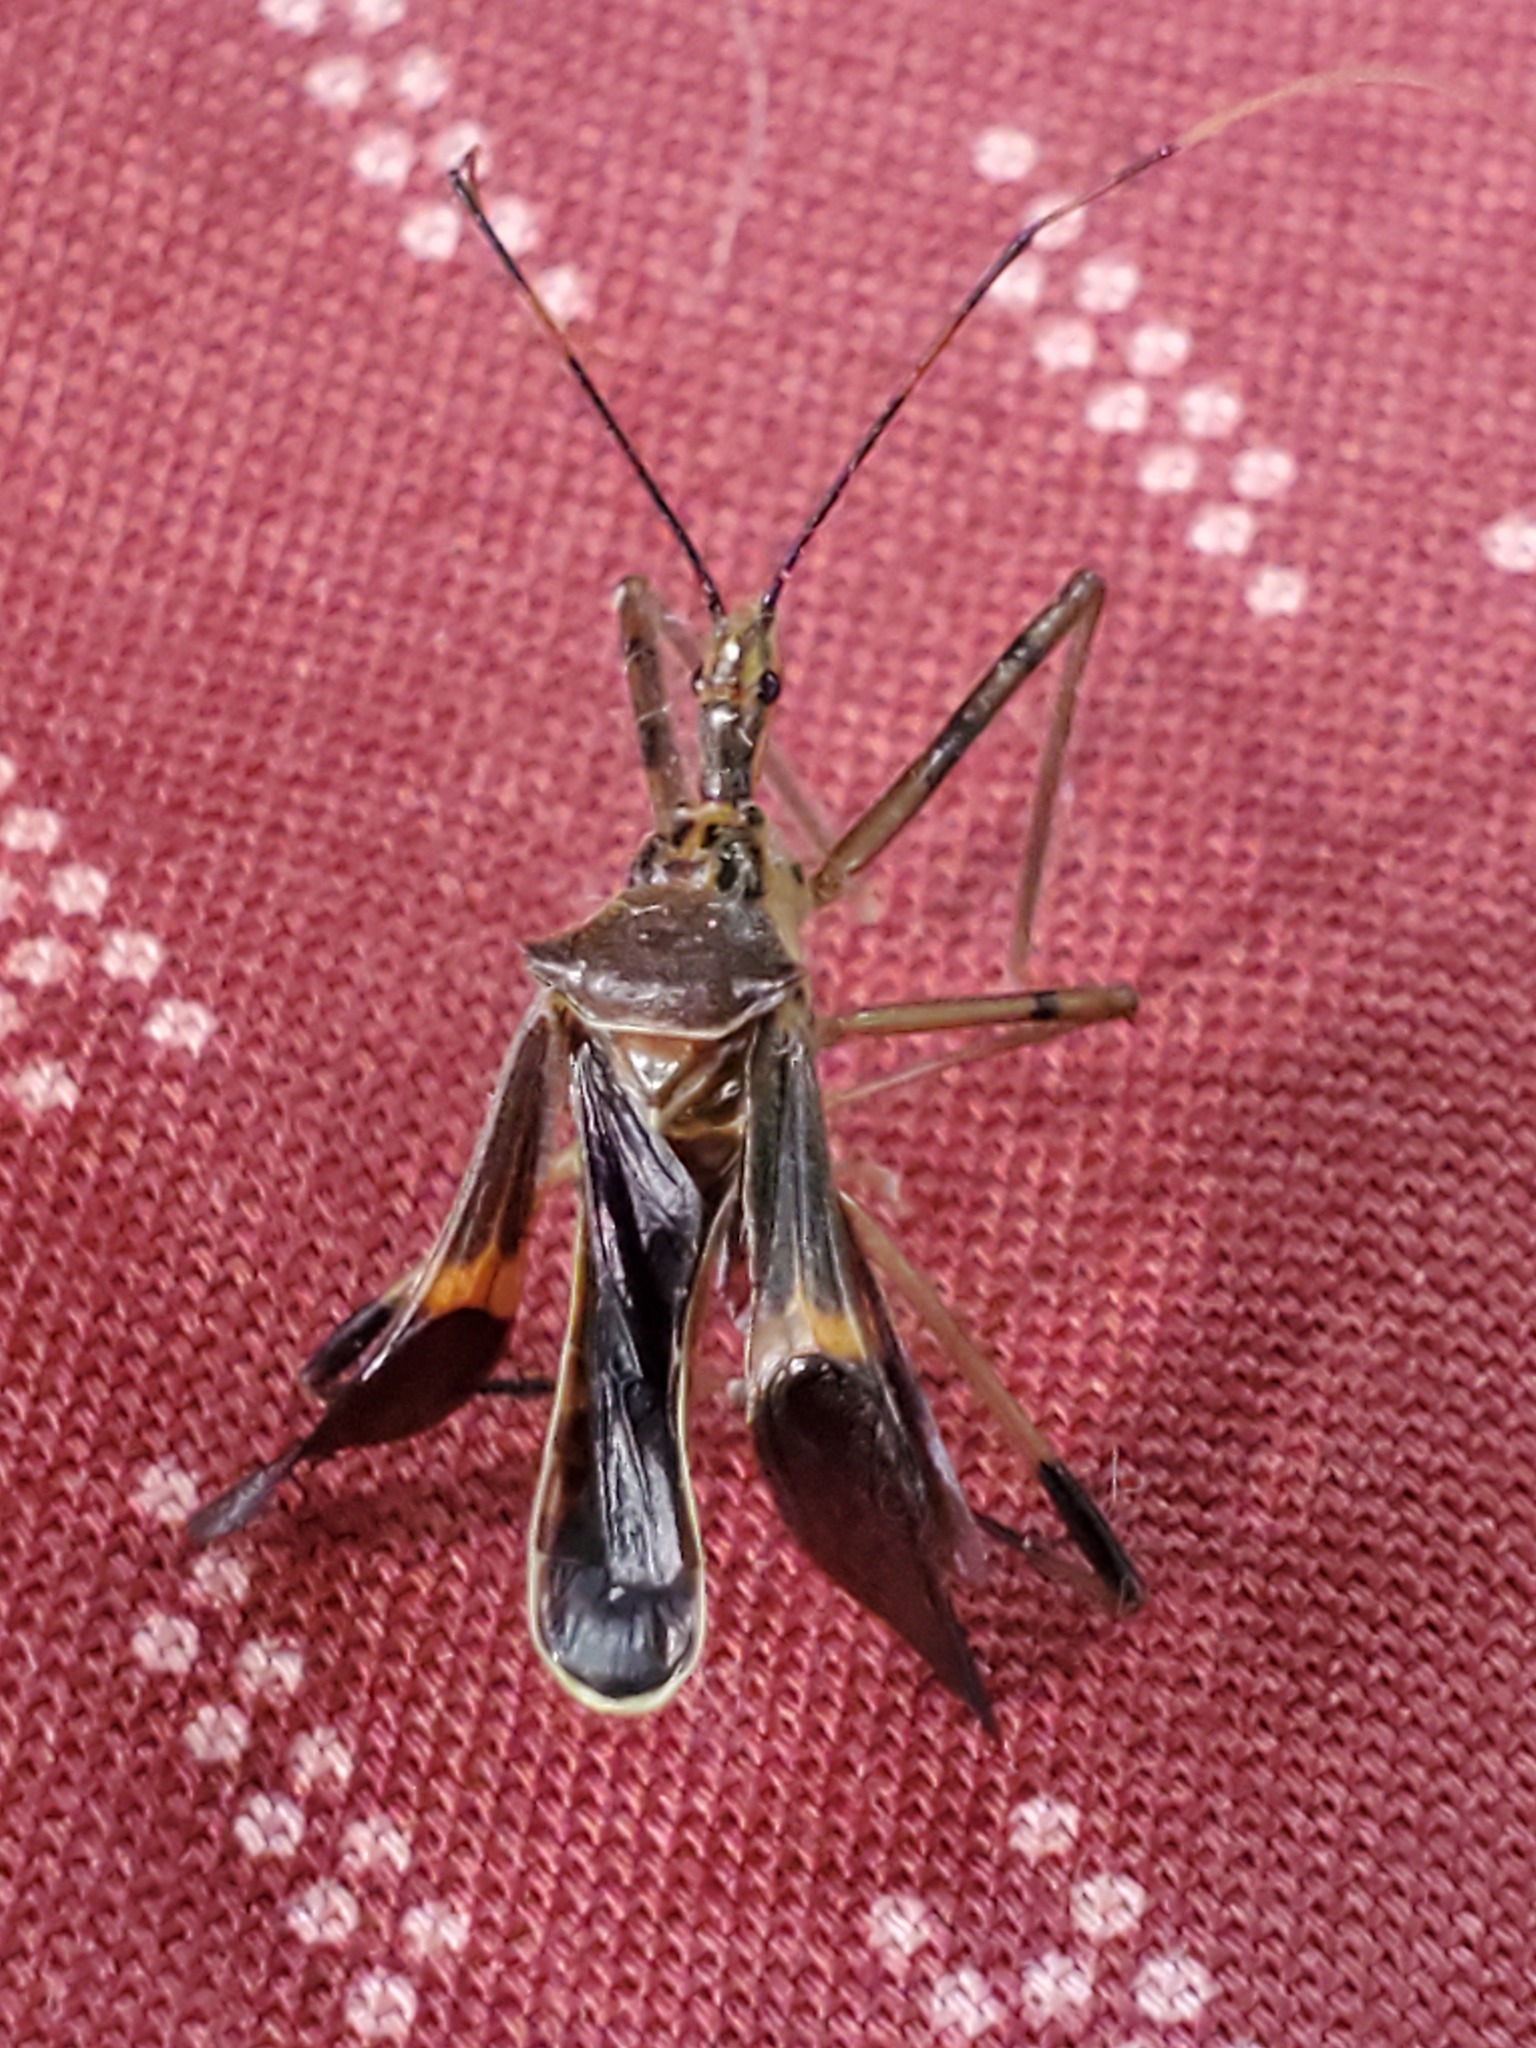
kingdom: Animalia
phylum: Arthropoda
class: Insecta
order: Hemiptera
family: Reduviidae
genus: Zelus
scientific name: Zelus janus
